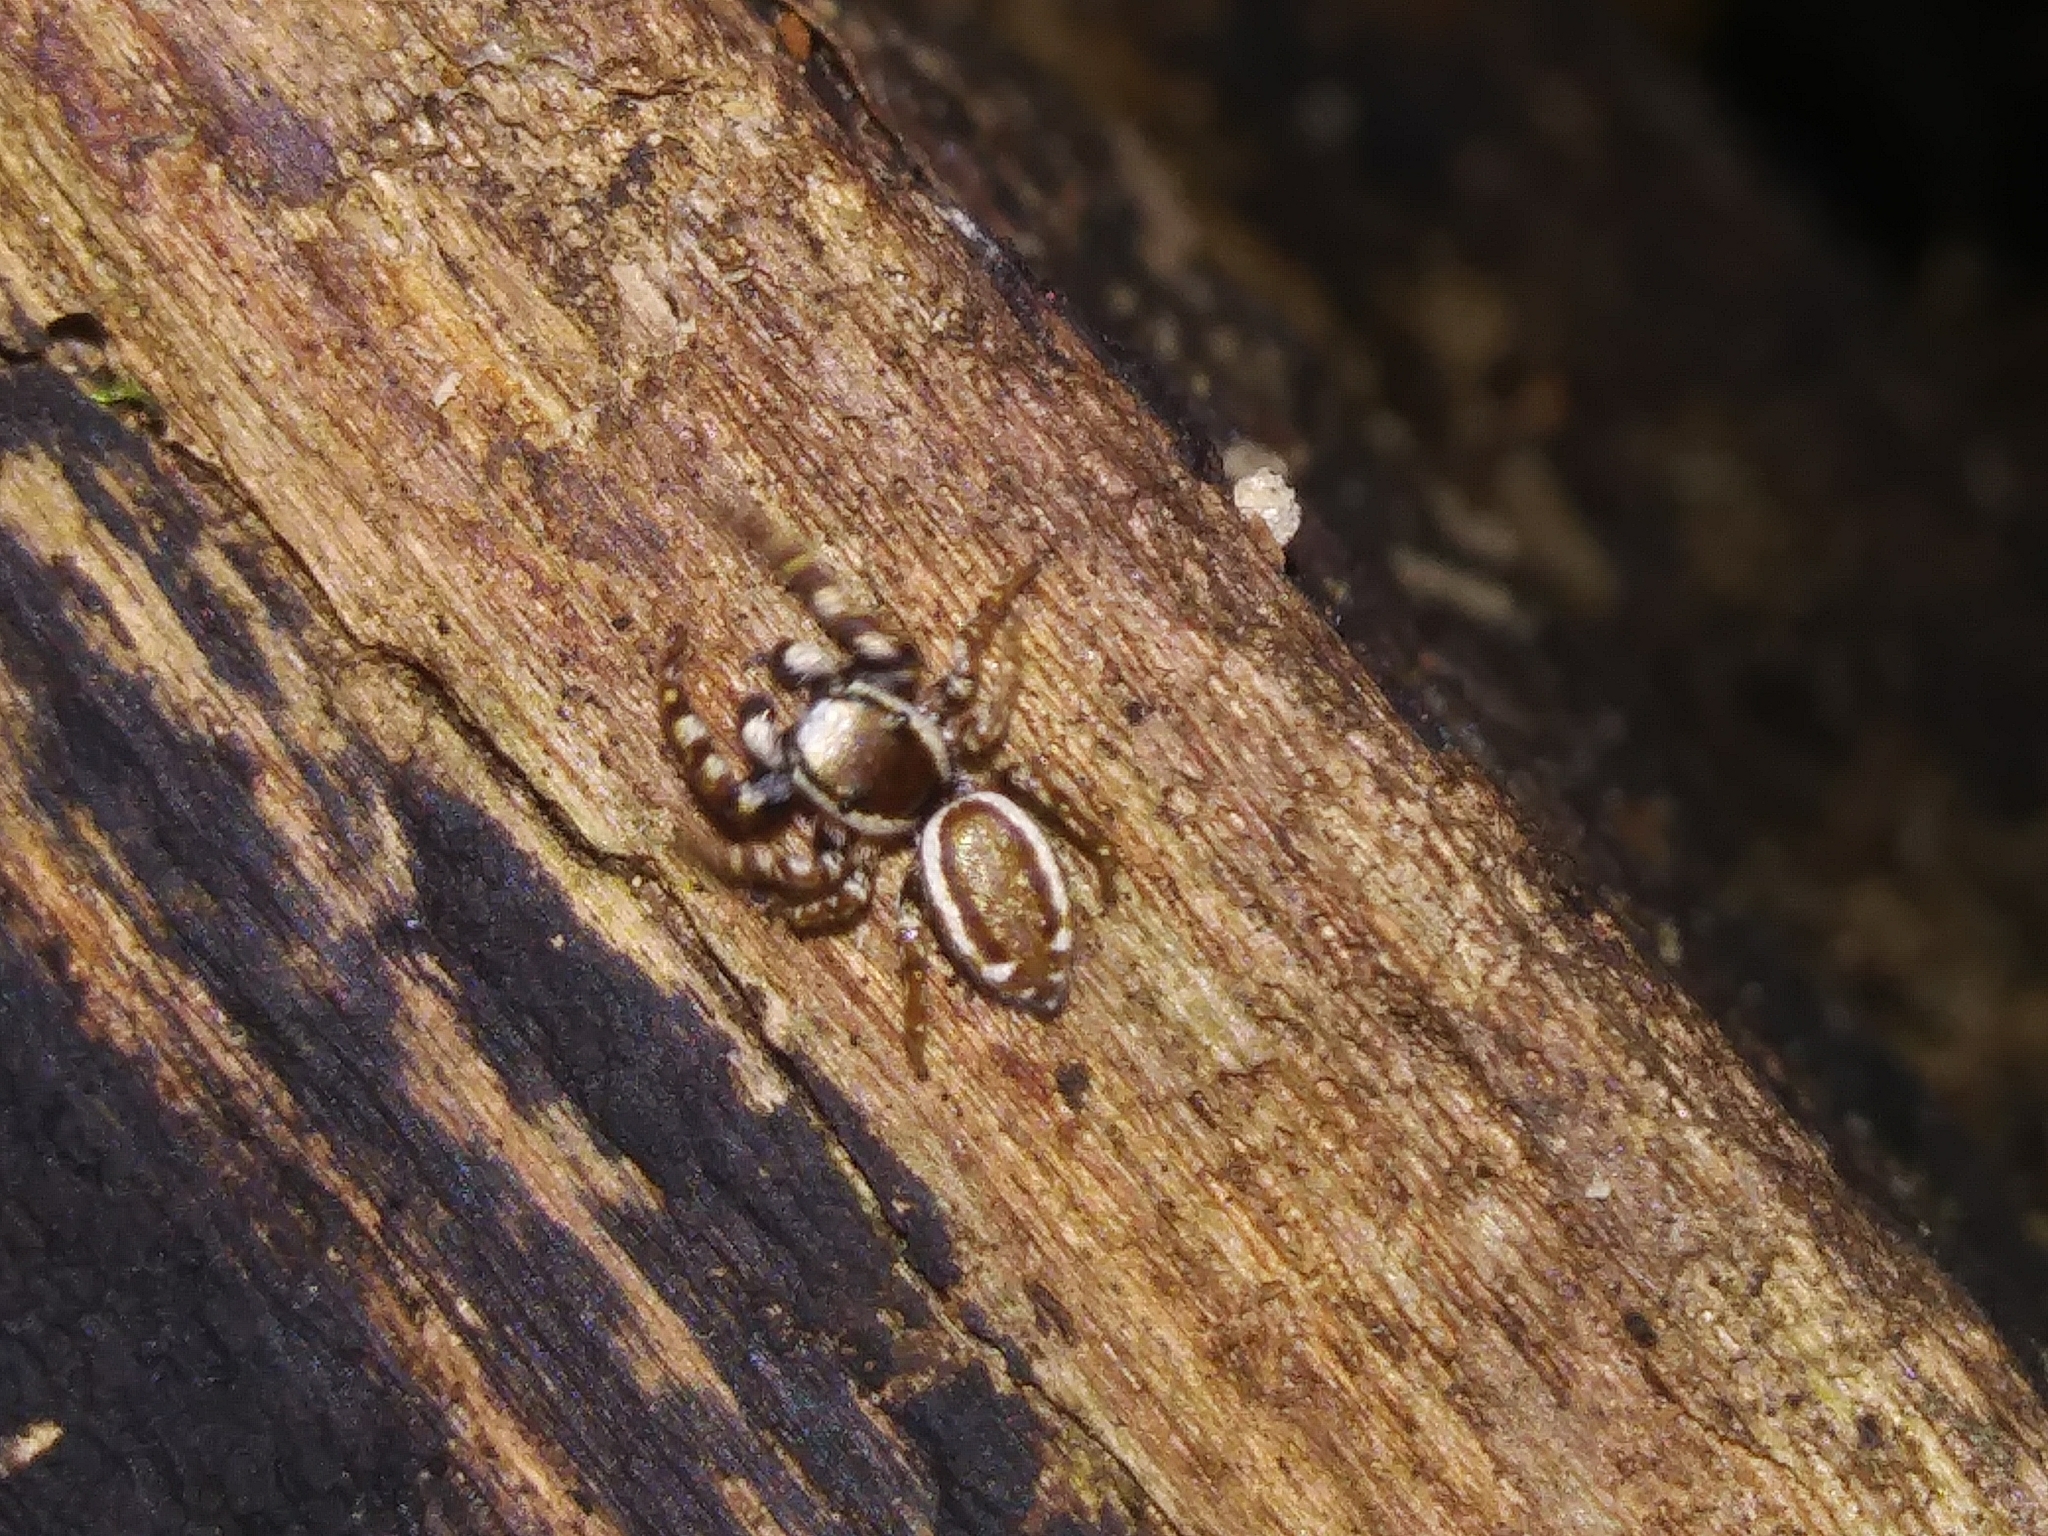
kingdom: Animalia
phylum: Arthropoda
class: Arachnida
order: Araneae
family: Salticidae
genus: Pelegrina
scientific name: Pelegrina proterva
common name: Common white-cheeked jumping spider
